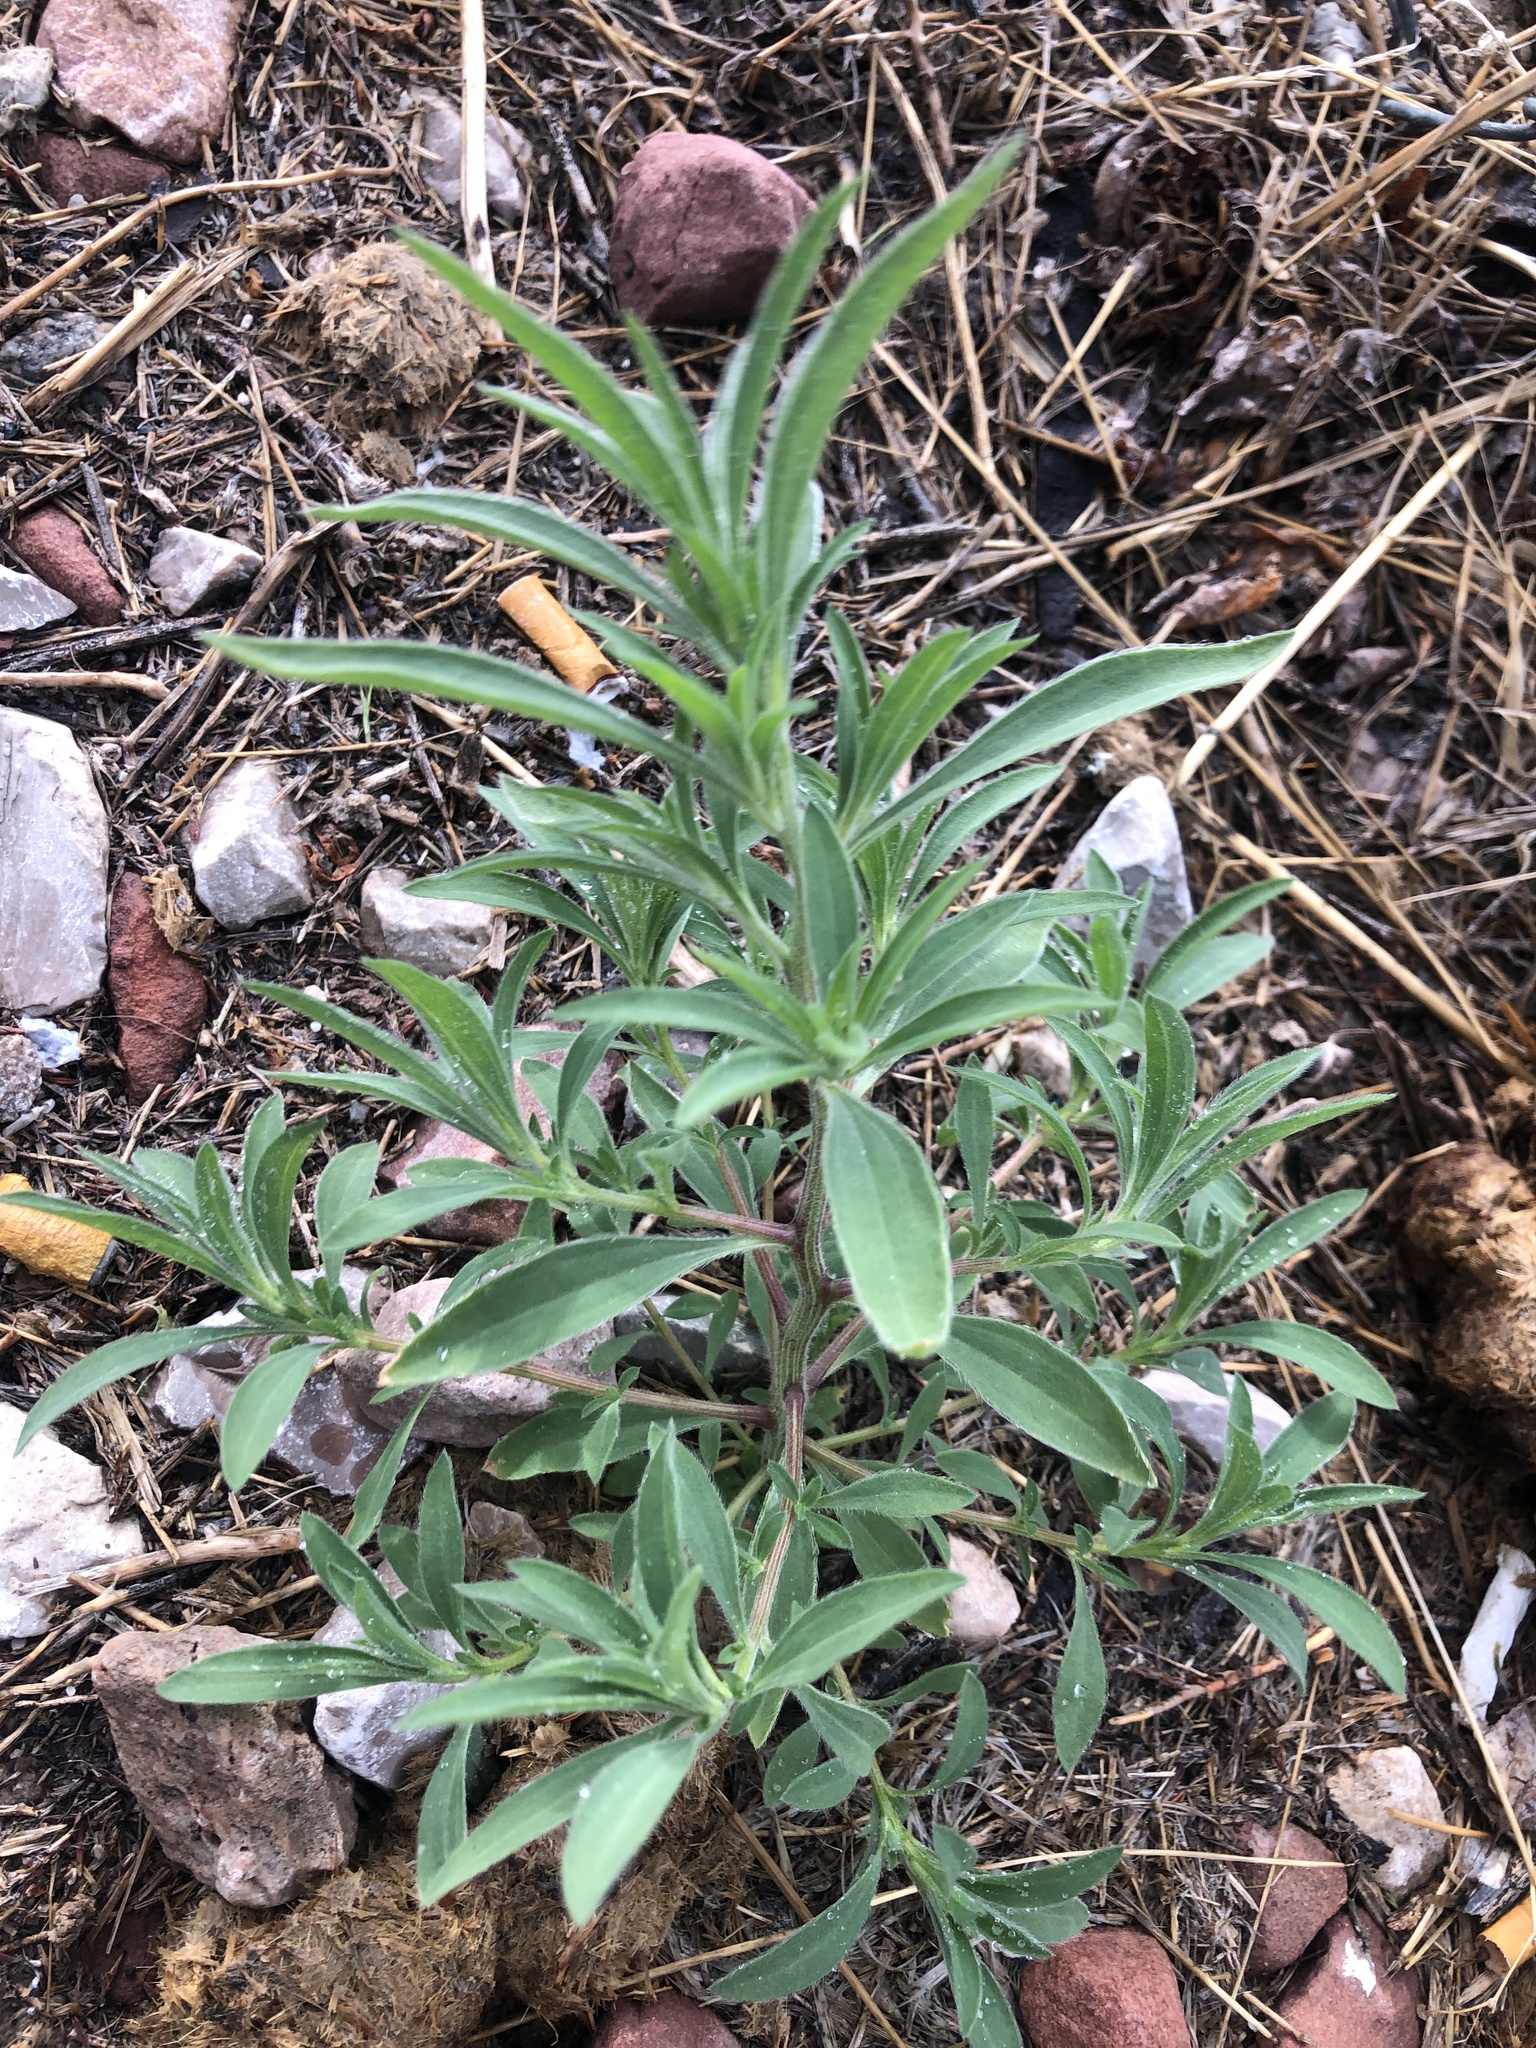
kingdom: Plantae
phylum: Tracheophyta
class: Magnoliopsida
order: Caryophyllales
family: Amaranthaceae
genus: Bassia
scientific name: Bassia scoparia
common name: Belvedere
